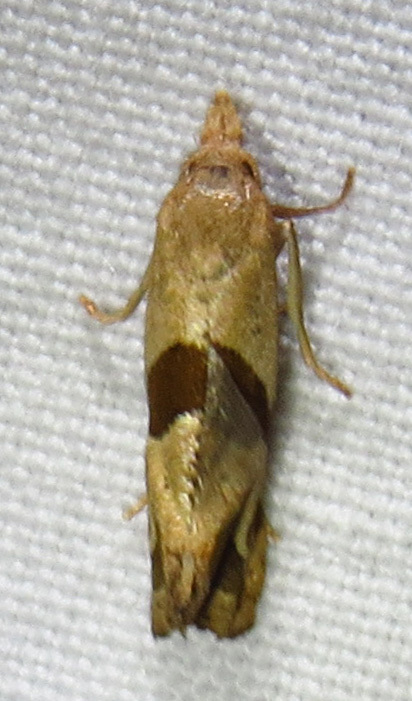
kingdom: Animalia
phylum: Arthropoda
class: Insecta
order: Lepidoptera
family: Tortricidae
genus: Eugnosta
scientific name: Eugnosta sartana
